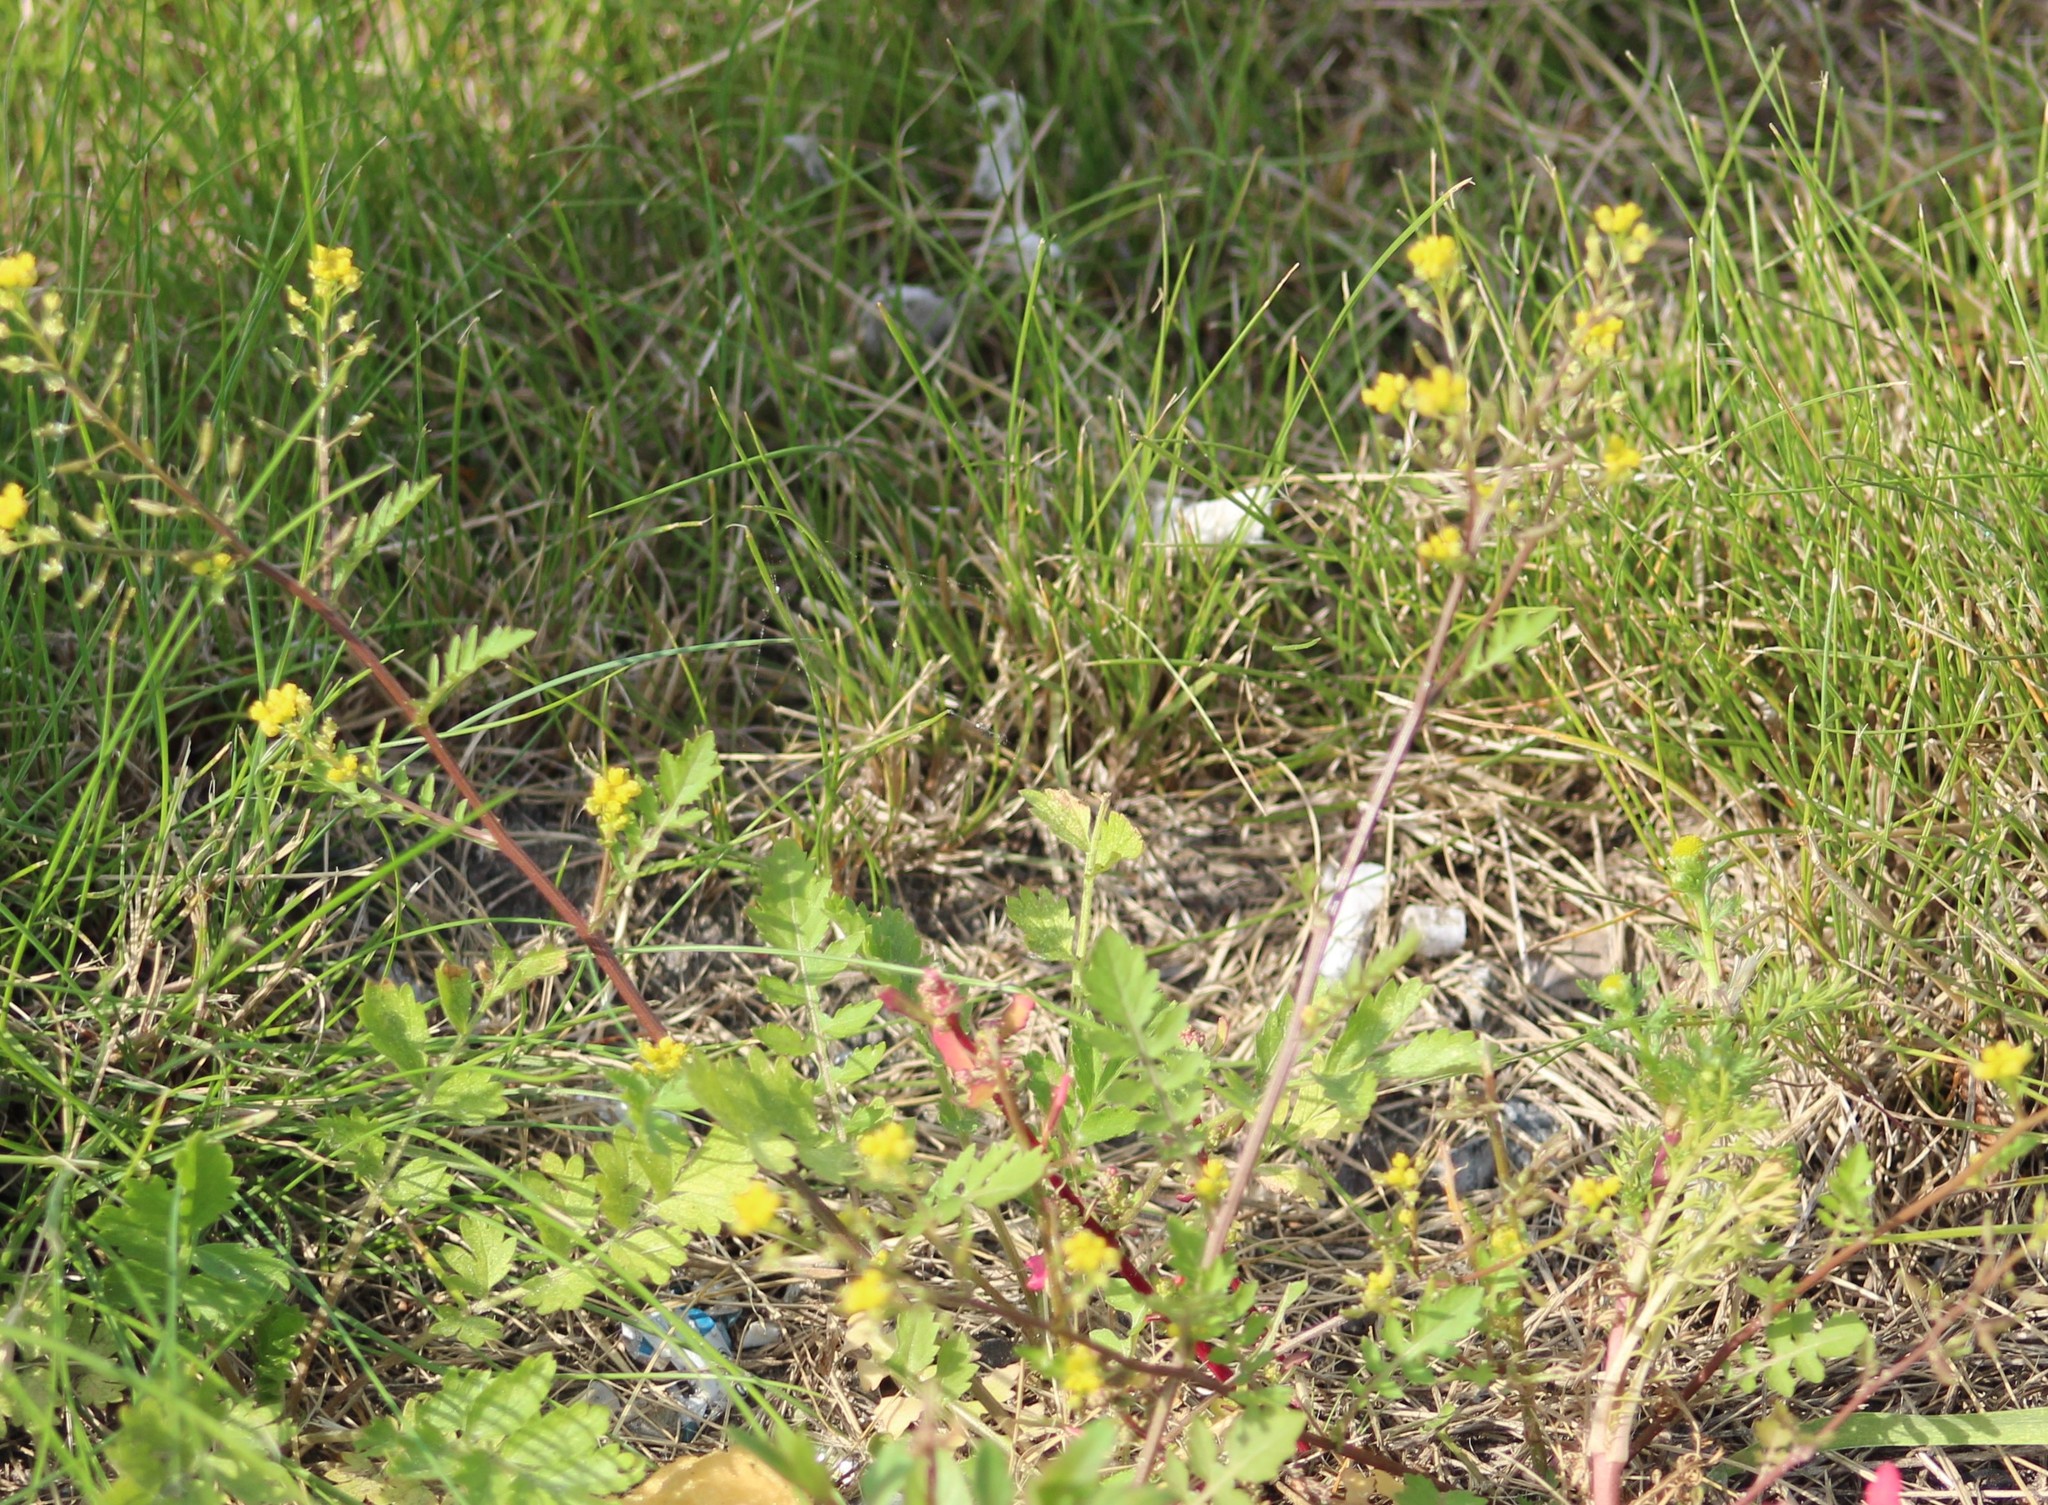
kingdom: Plantae
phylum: Tracheophyta
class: Magnoliopsida
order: Brassicales
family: Brassicaceae
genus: Rorippa
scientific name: Rorippa palustris
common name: Marsh yellow-cress
